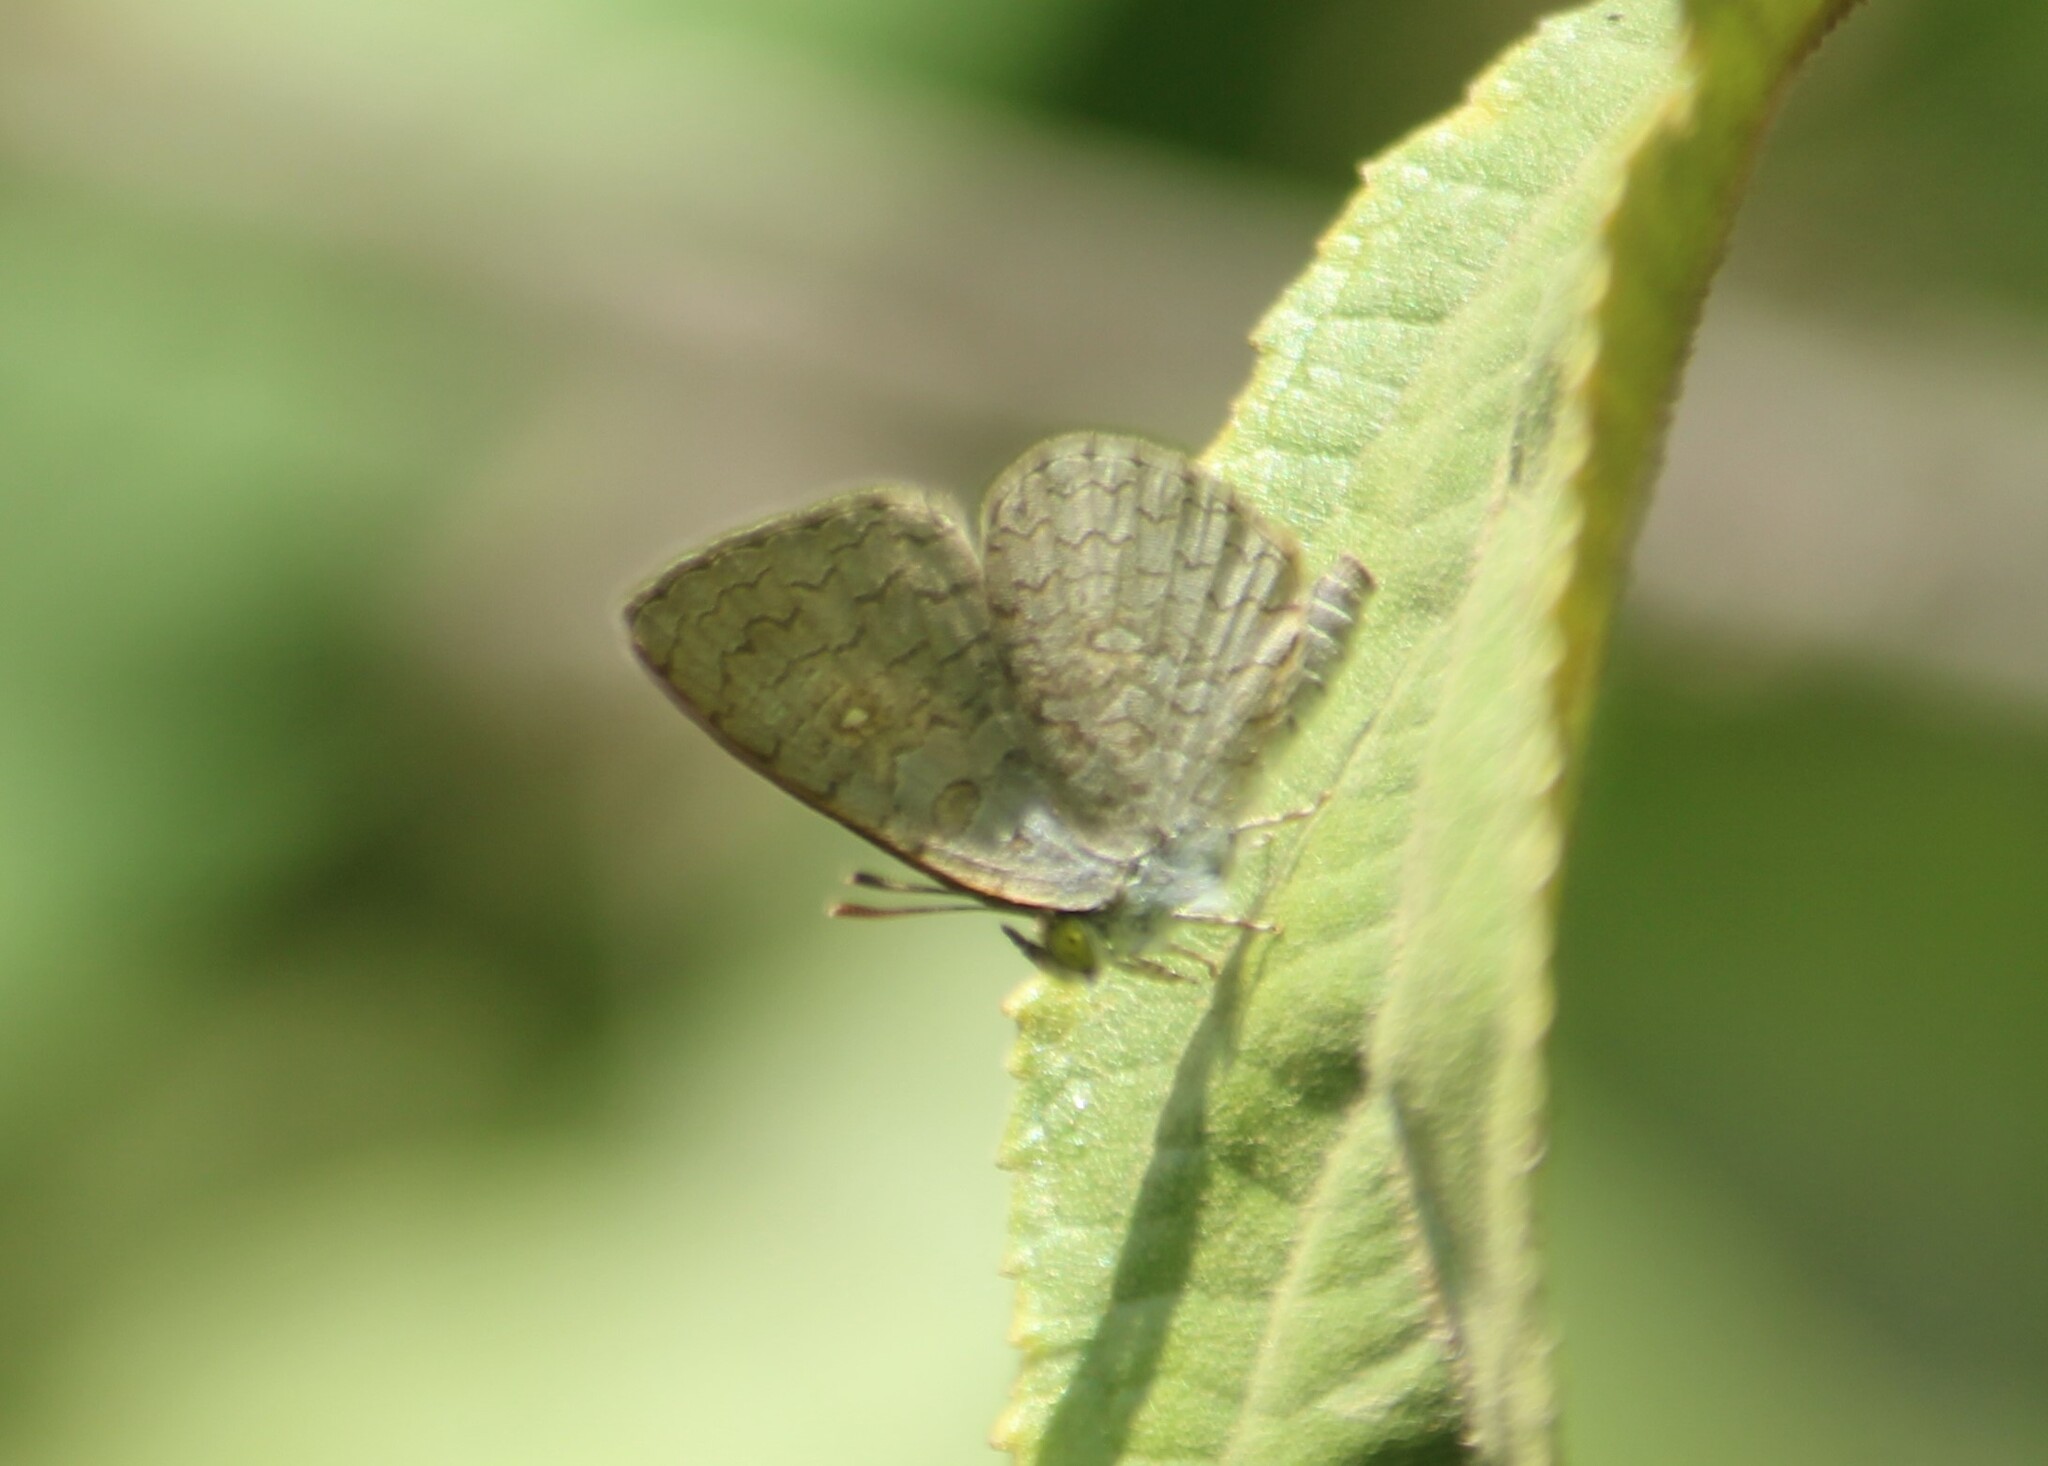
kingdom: Animalia
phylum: Arthropoda
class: Insecta
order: Lepidoptera
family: Lycaenidae
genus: Spalgis
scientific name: Spalgis epius
